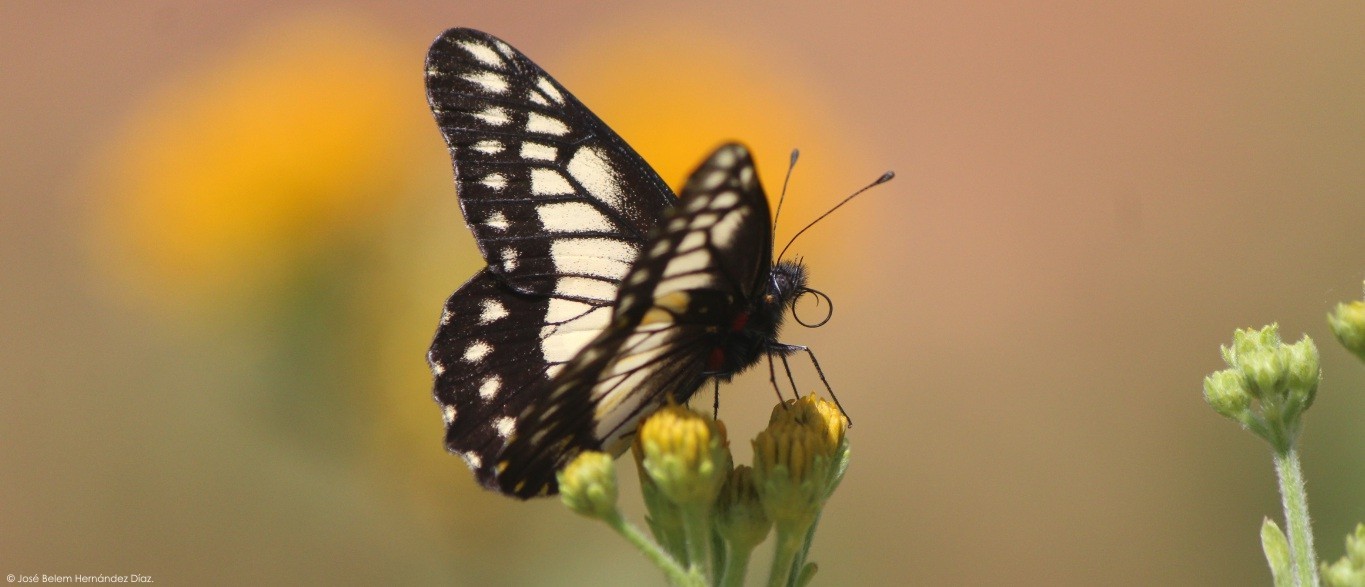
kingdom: Animalia
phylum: Arthropoda
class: Insecta
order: Lepidoptera
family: Pieridae
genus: Archonias
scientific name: Archonias nimbice
